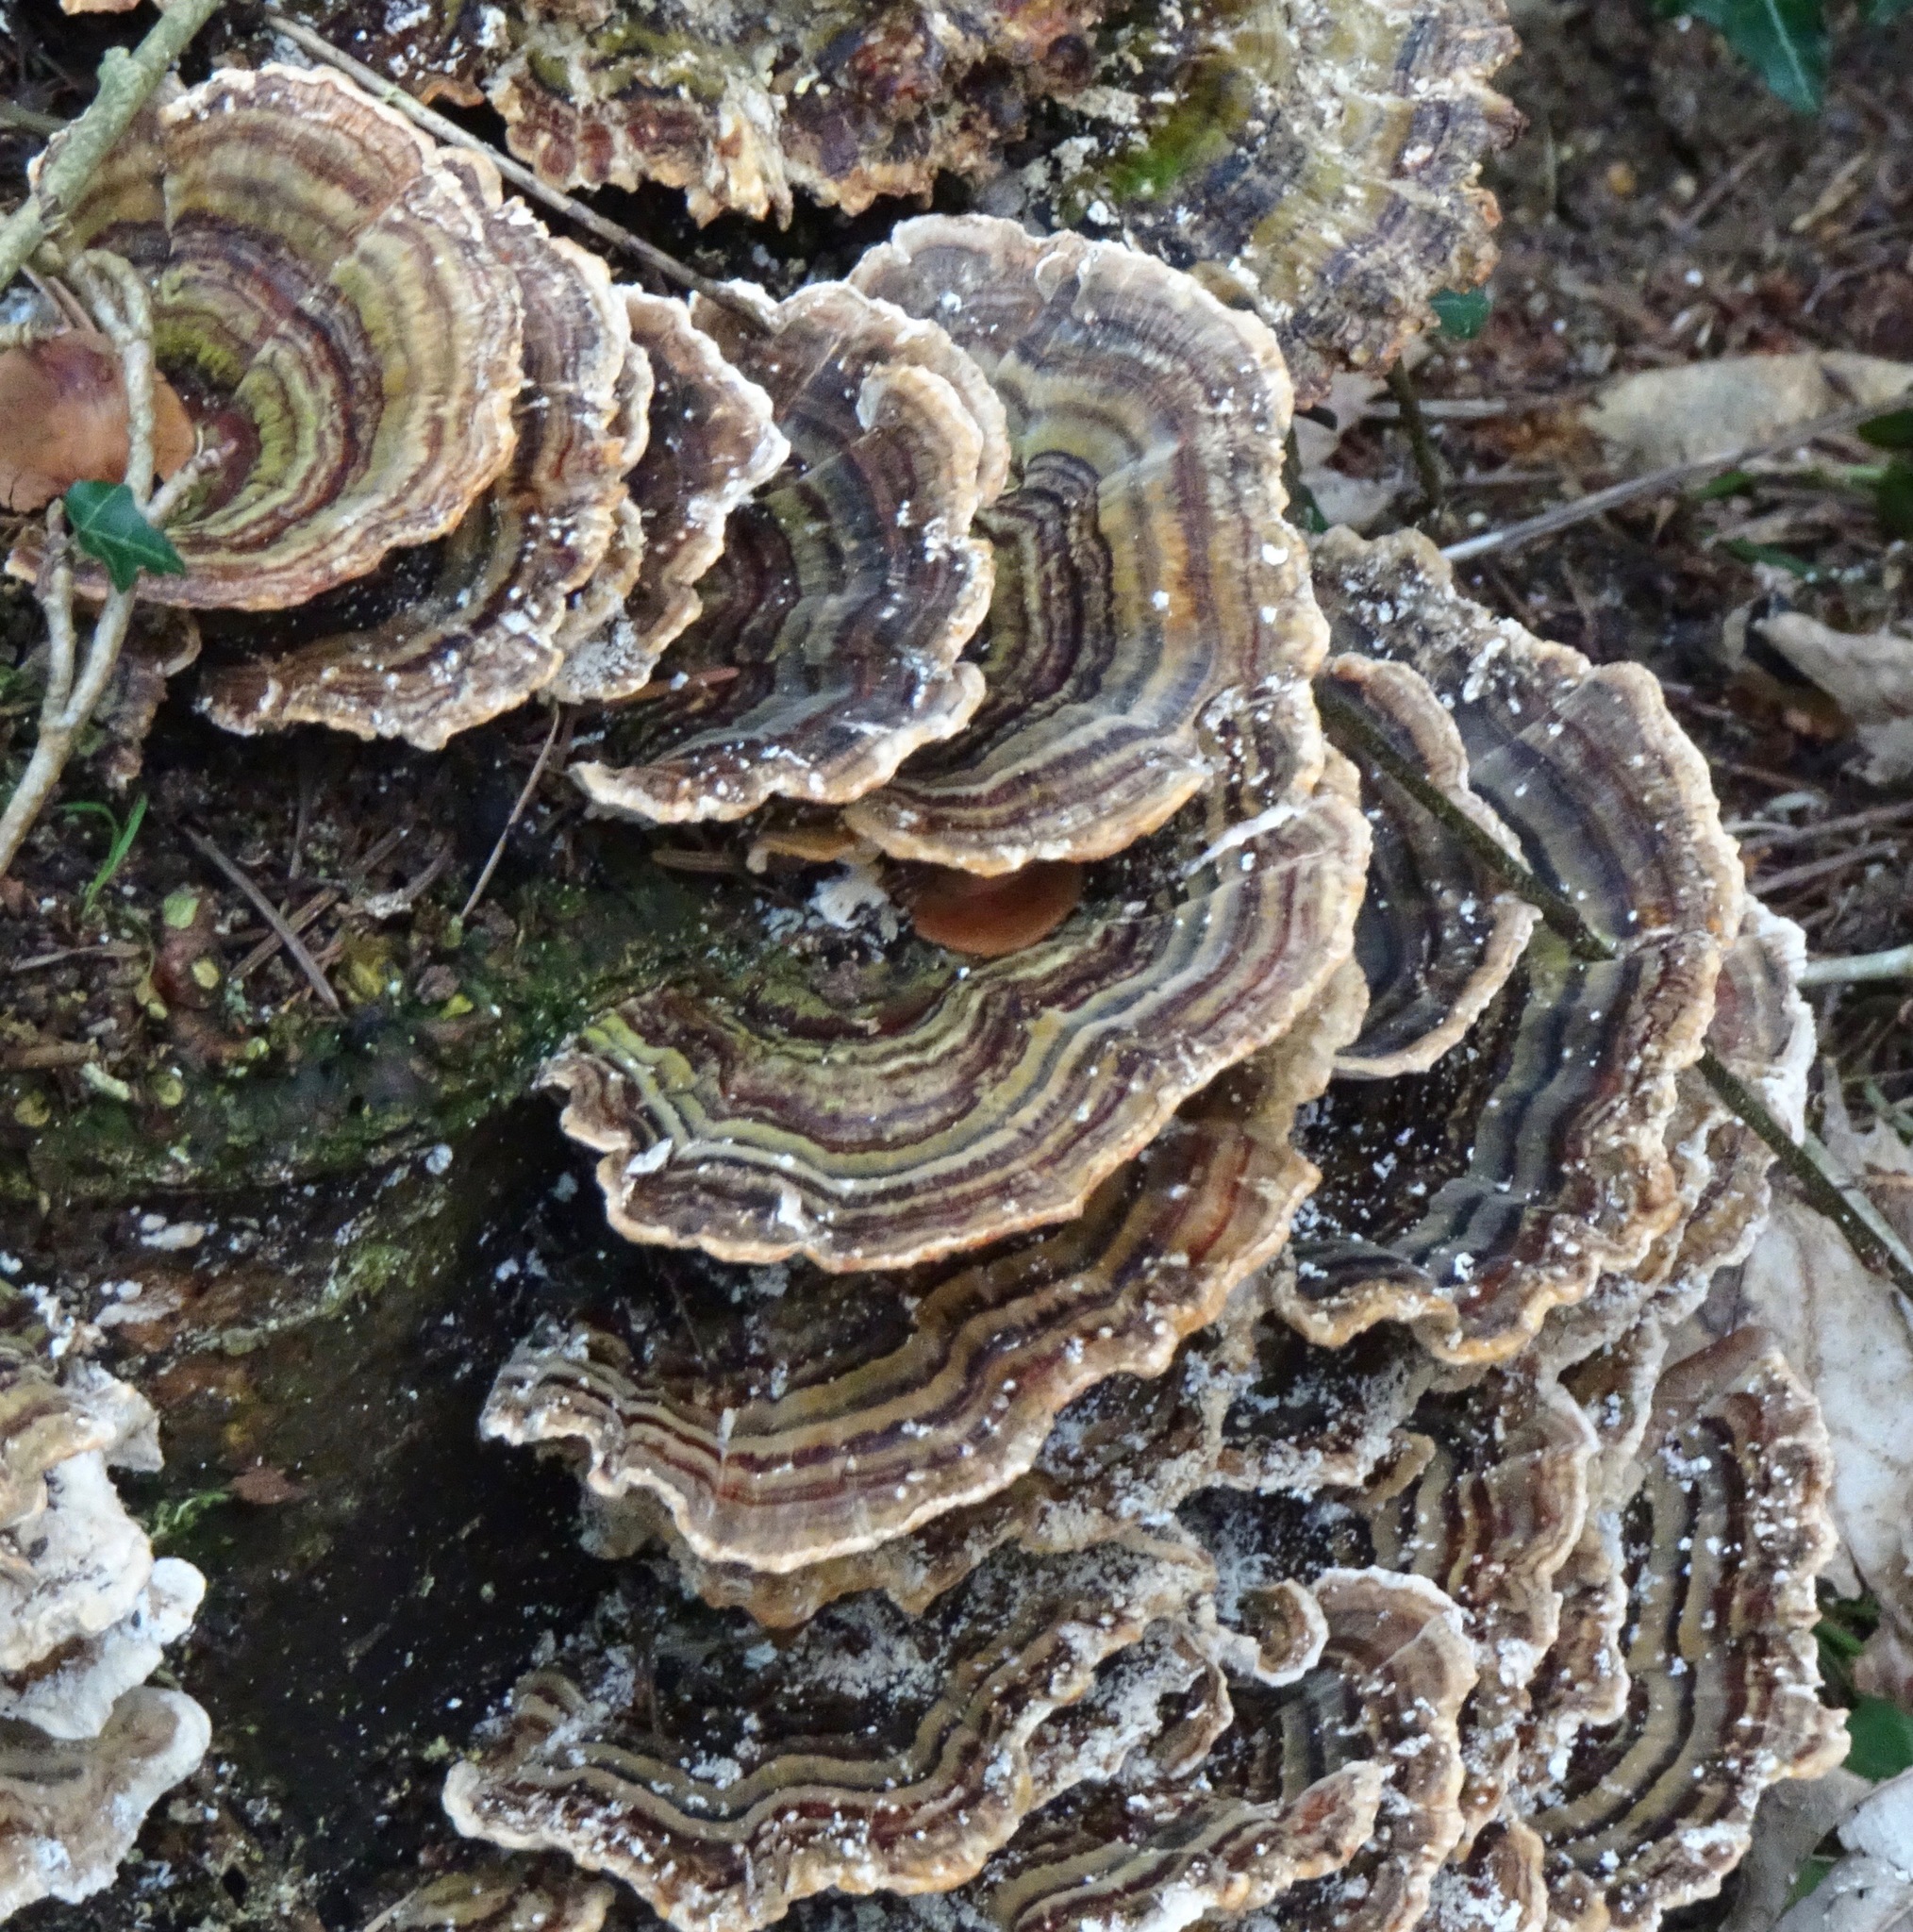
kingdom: Fungi
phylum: Basidiomycota
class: Agaricomycetes
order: Polyporales
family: Polyporaceae
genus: Trametes
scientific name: Trametes versicolor
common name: Turkeytail
